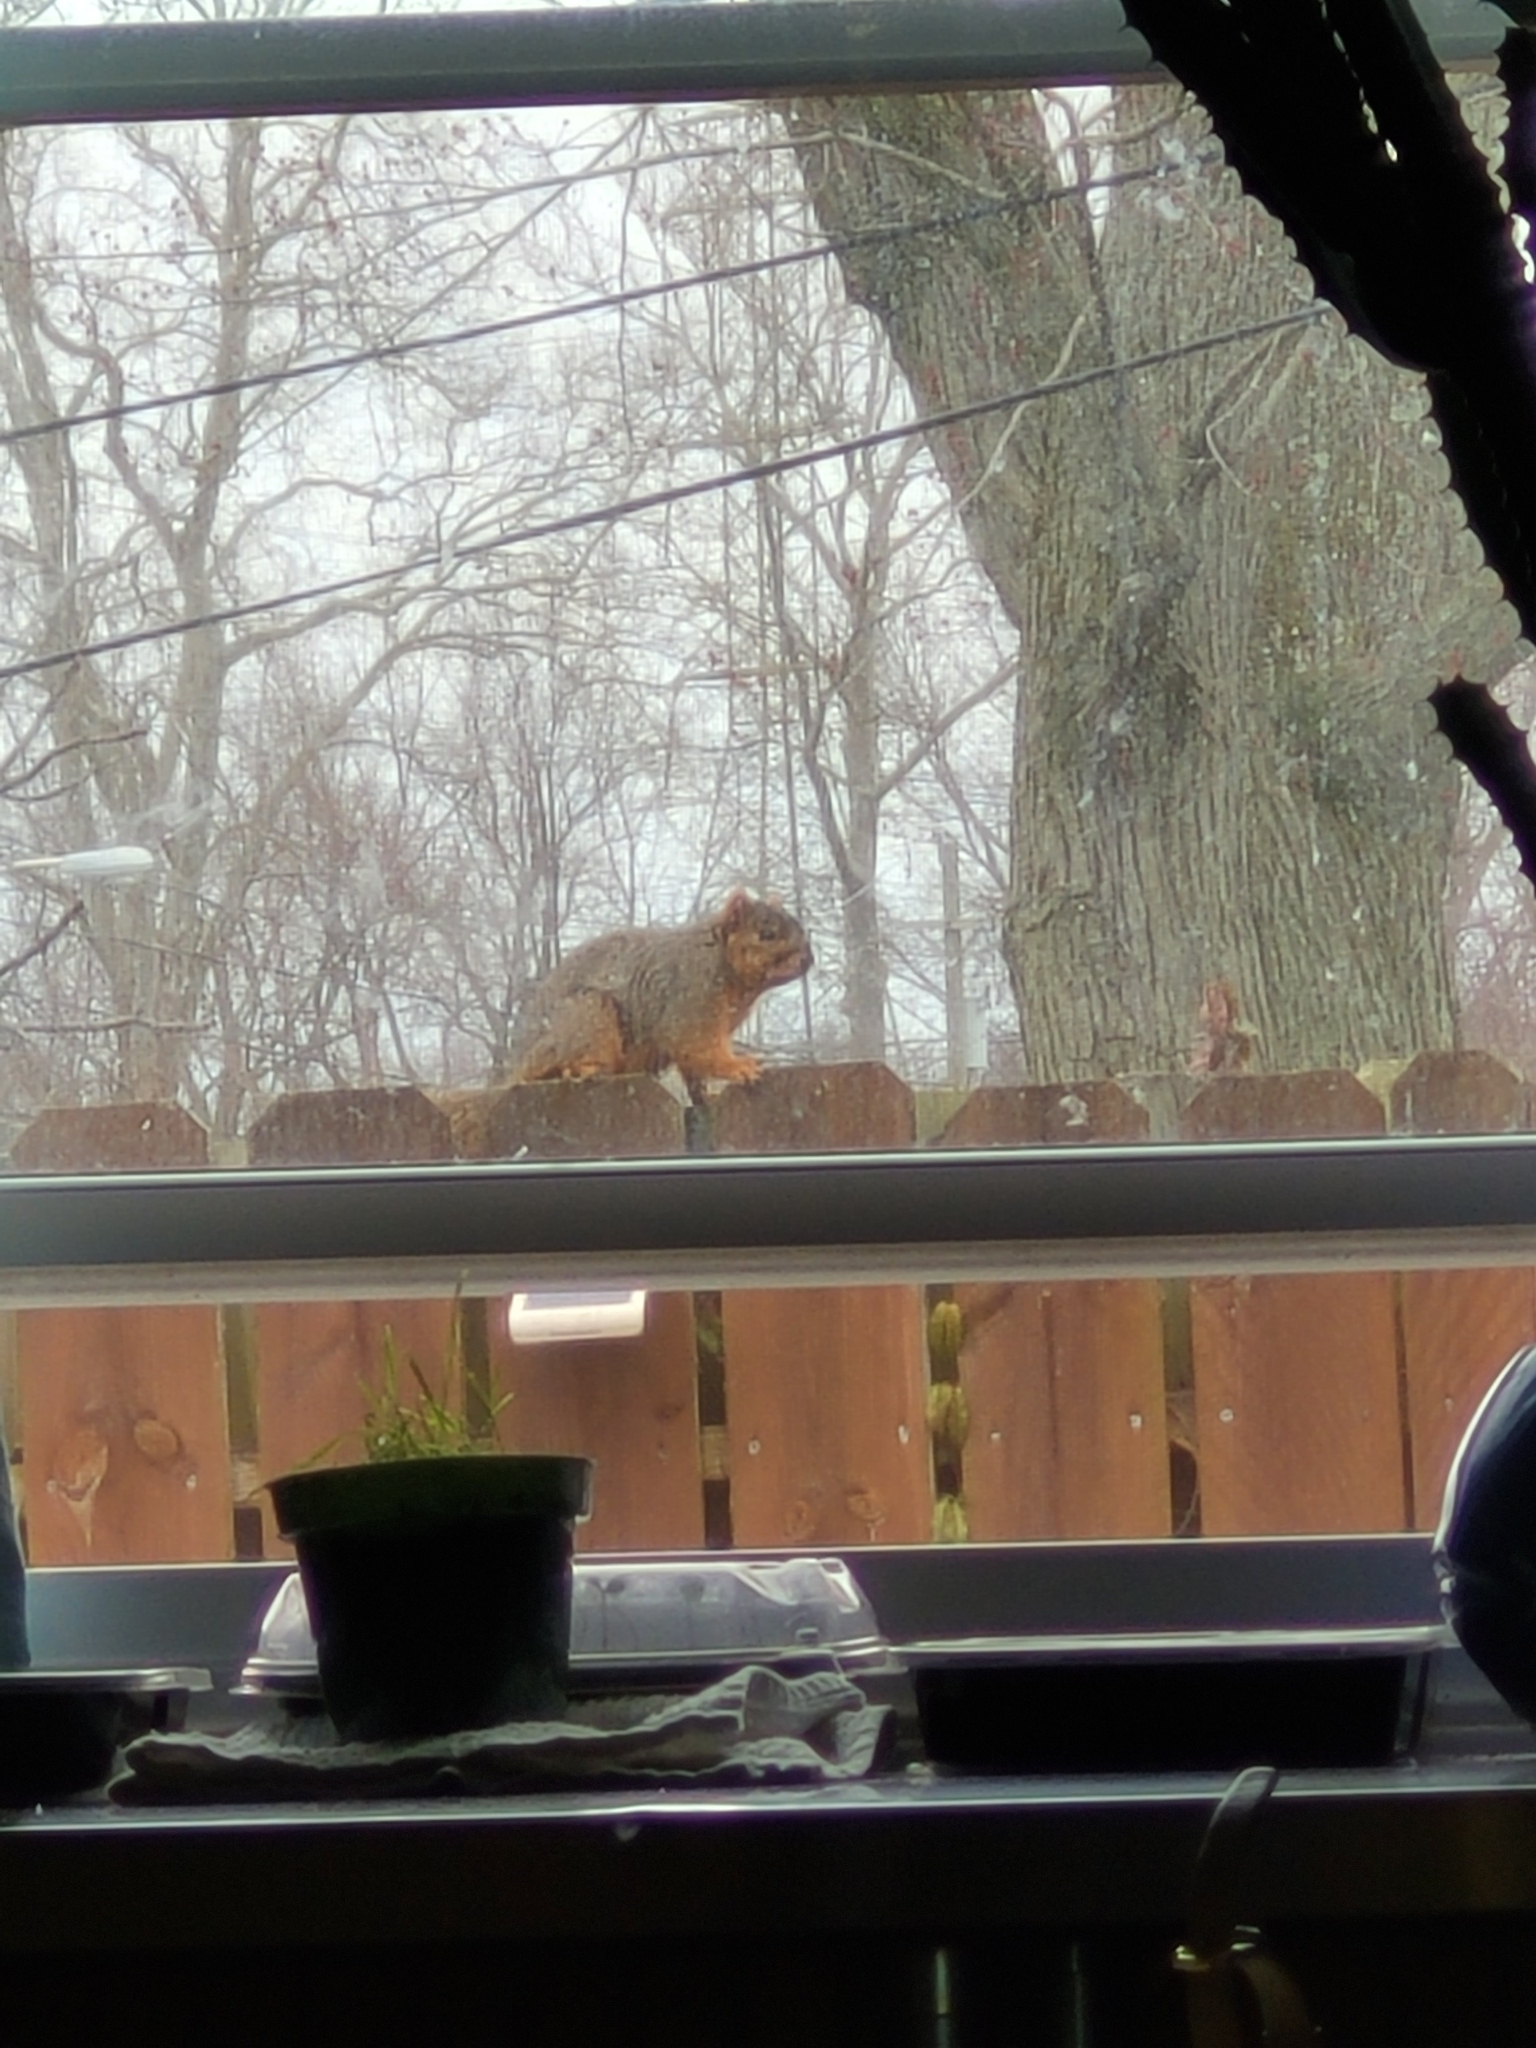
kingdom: Animalia
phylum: Chordata
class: Mammalia
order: Rodentia
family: Sciuridae
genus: Sciurus
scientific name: Sciurus niger
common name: Fox squirrel
